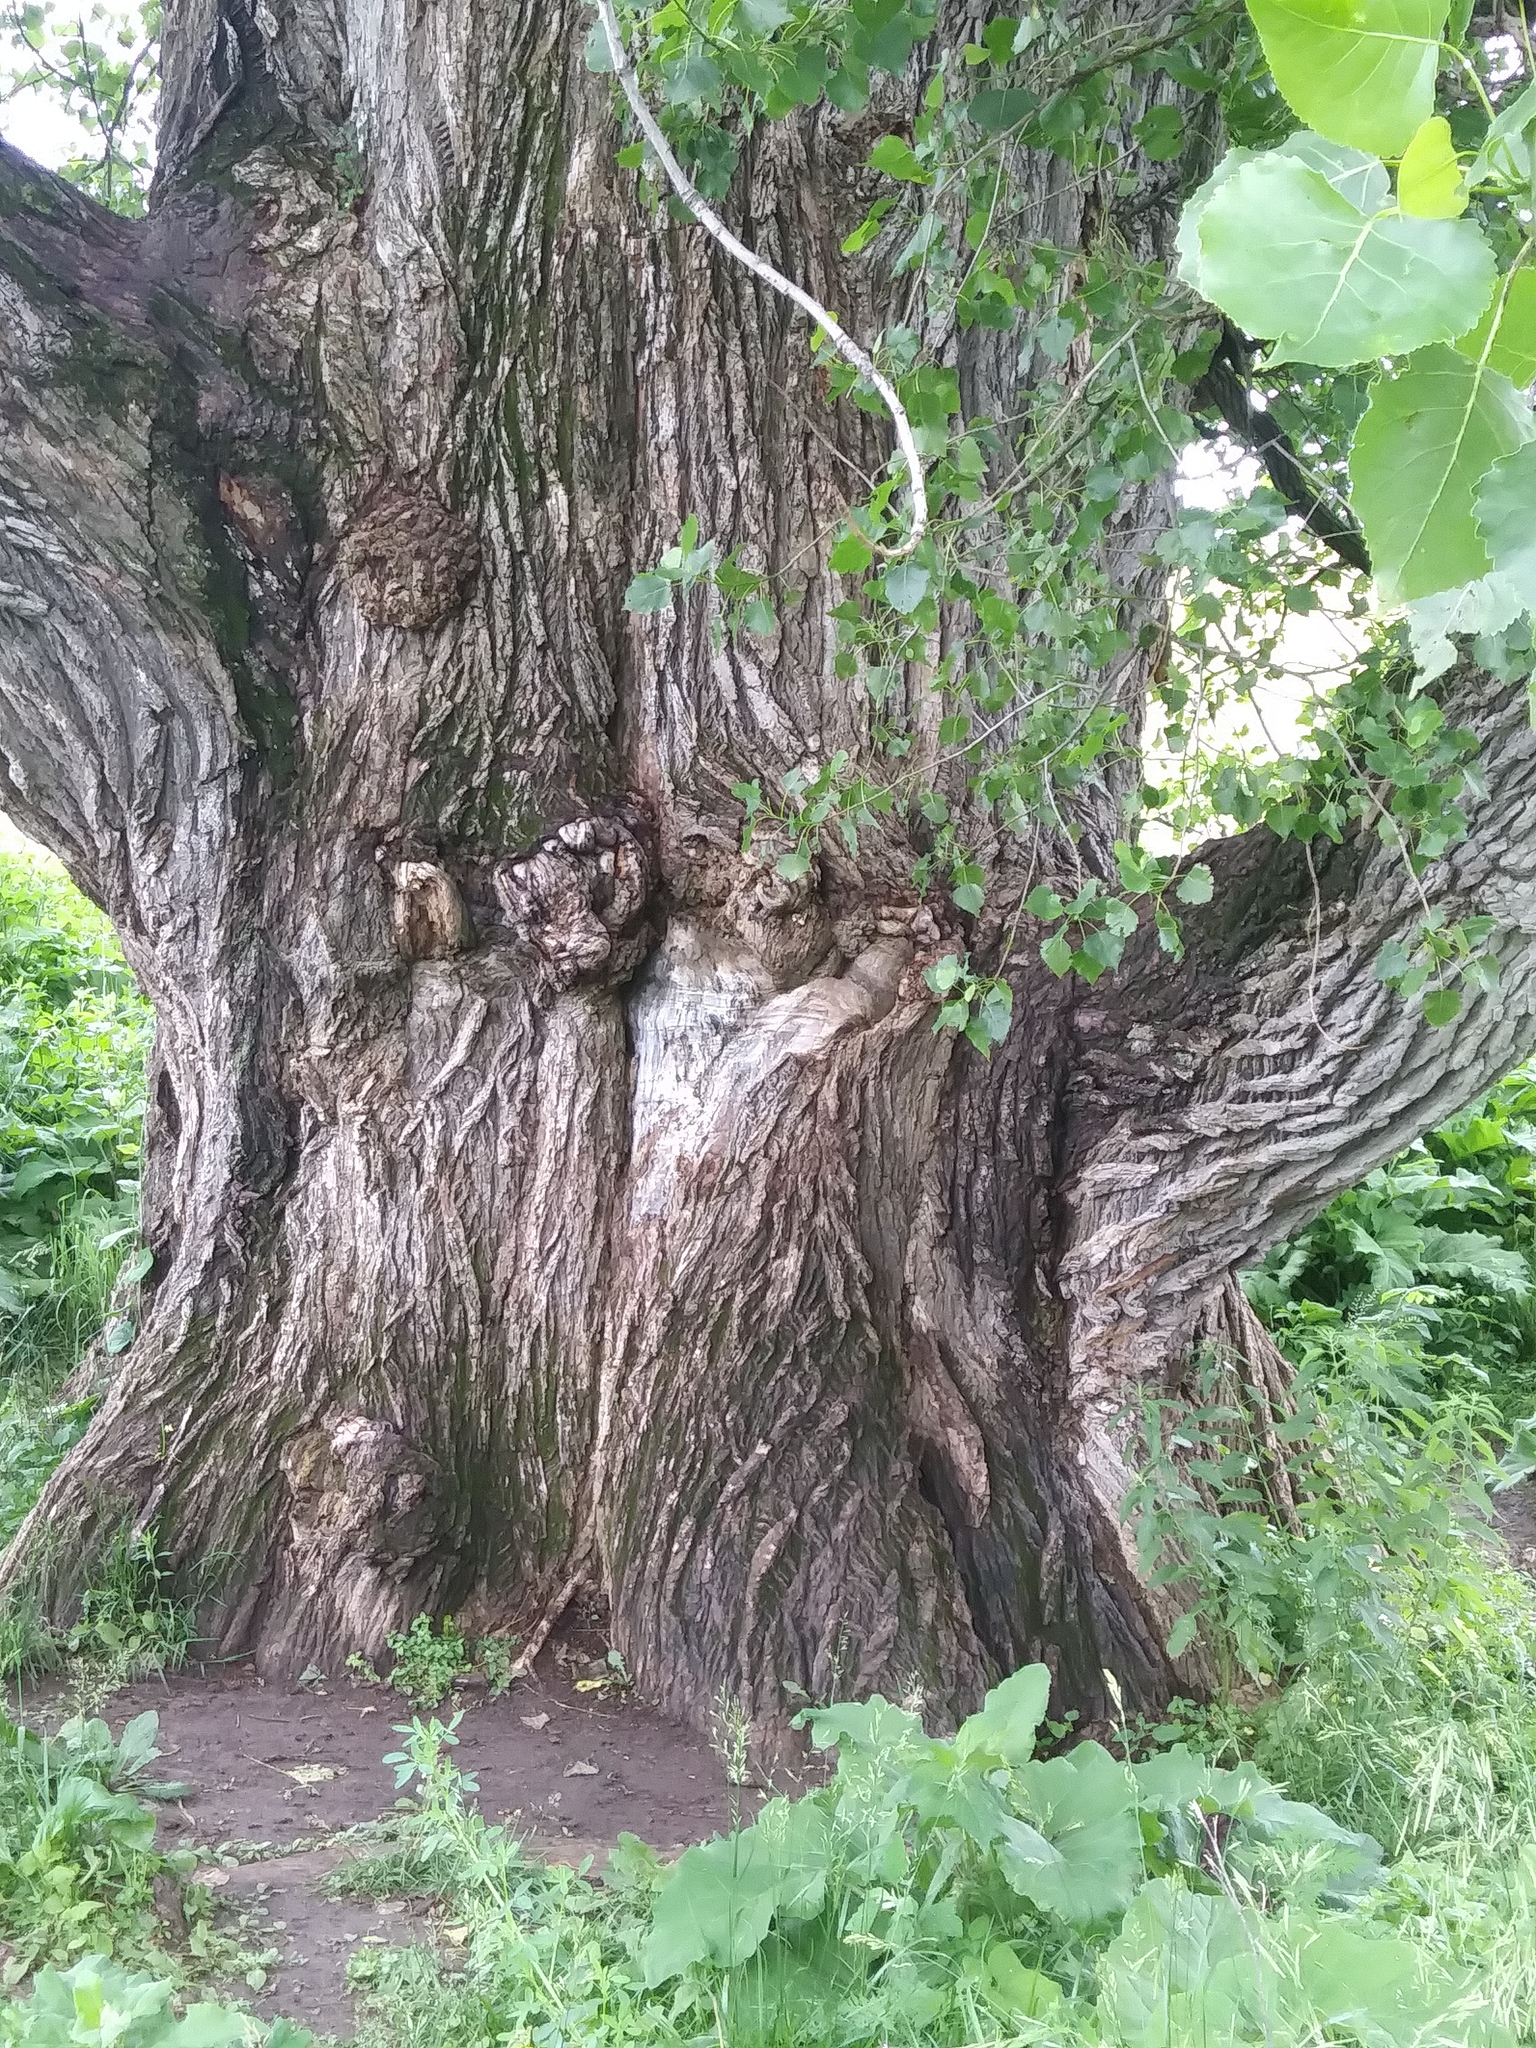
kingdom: Plantae
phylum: Tracheophyta
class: Magnoliopsida
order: Malpighiales
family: Salicaceae
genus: Populus
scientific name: Populus deltoides
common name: Eastern cottonwood
